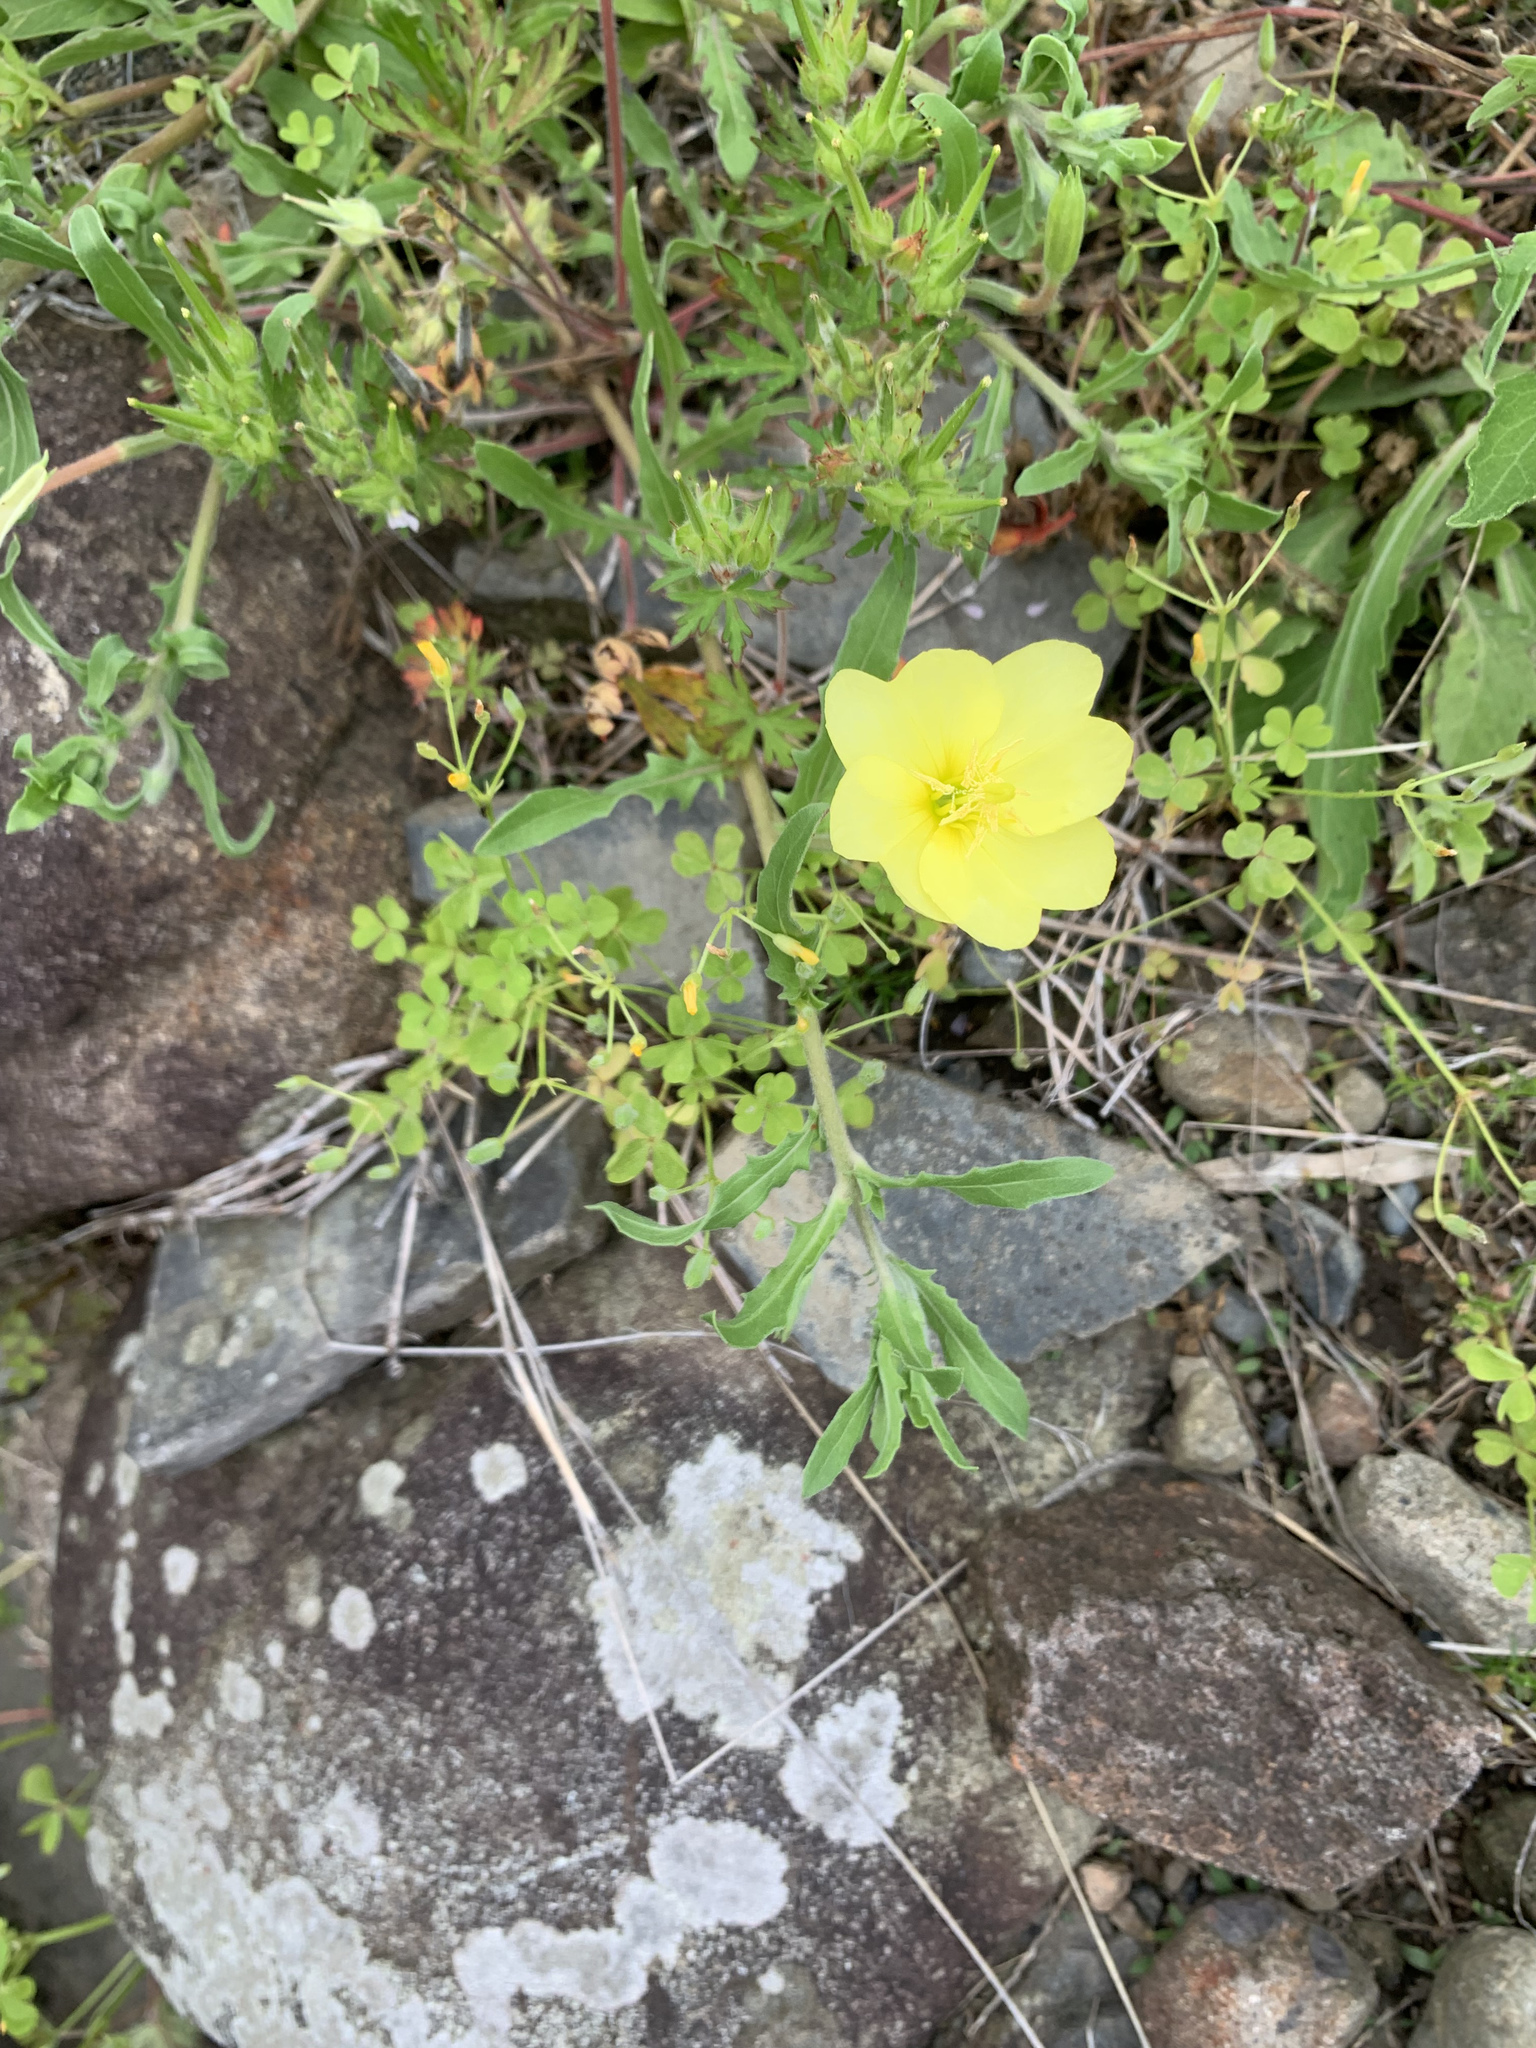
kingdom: Plantae
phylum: Tracheophyta
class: Magnoliopsida
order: Myrtales
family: Onagraceae
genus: Oenothera
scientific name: Oenothera laciniata
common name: Cut-leaved evening-primrose
